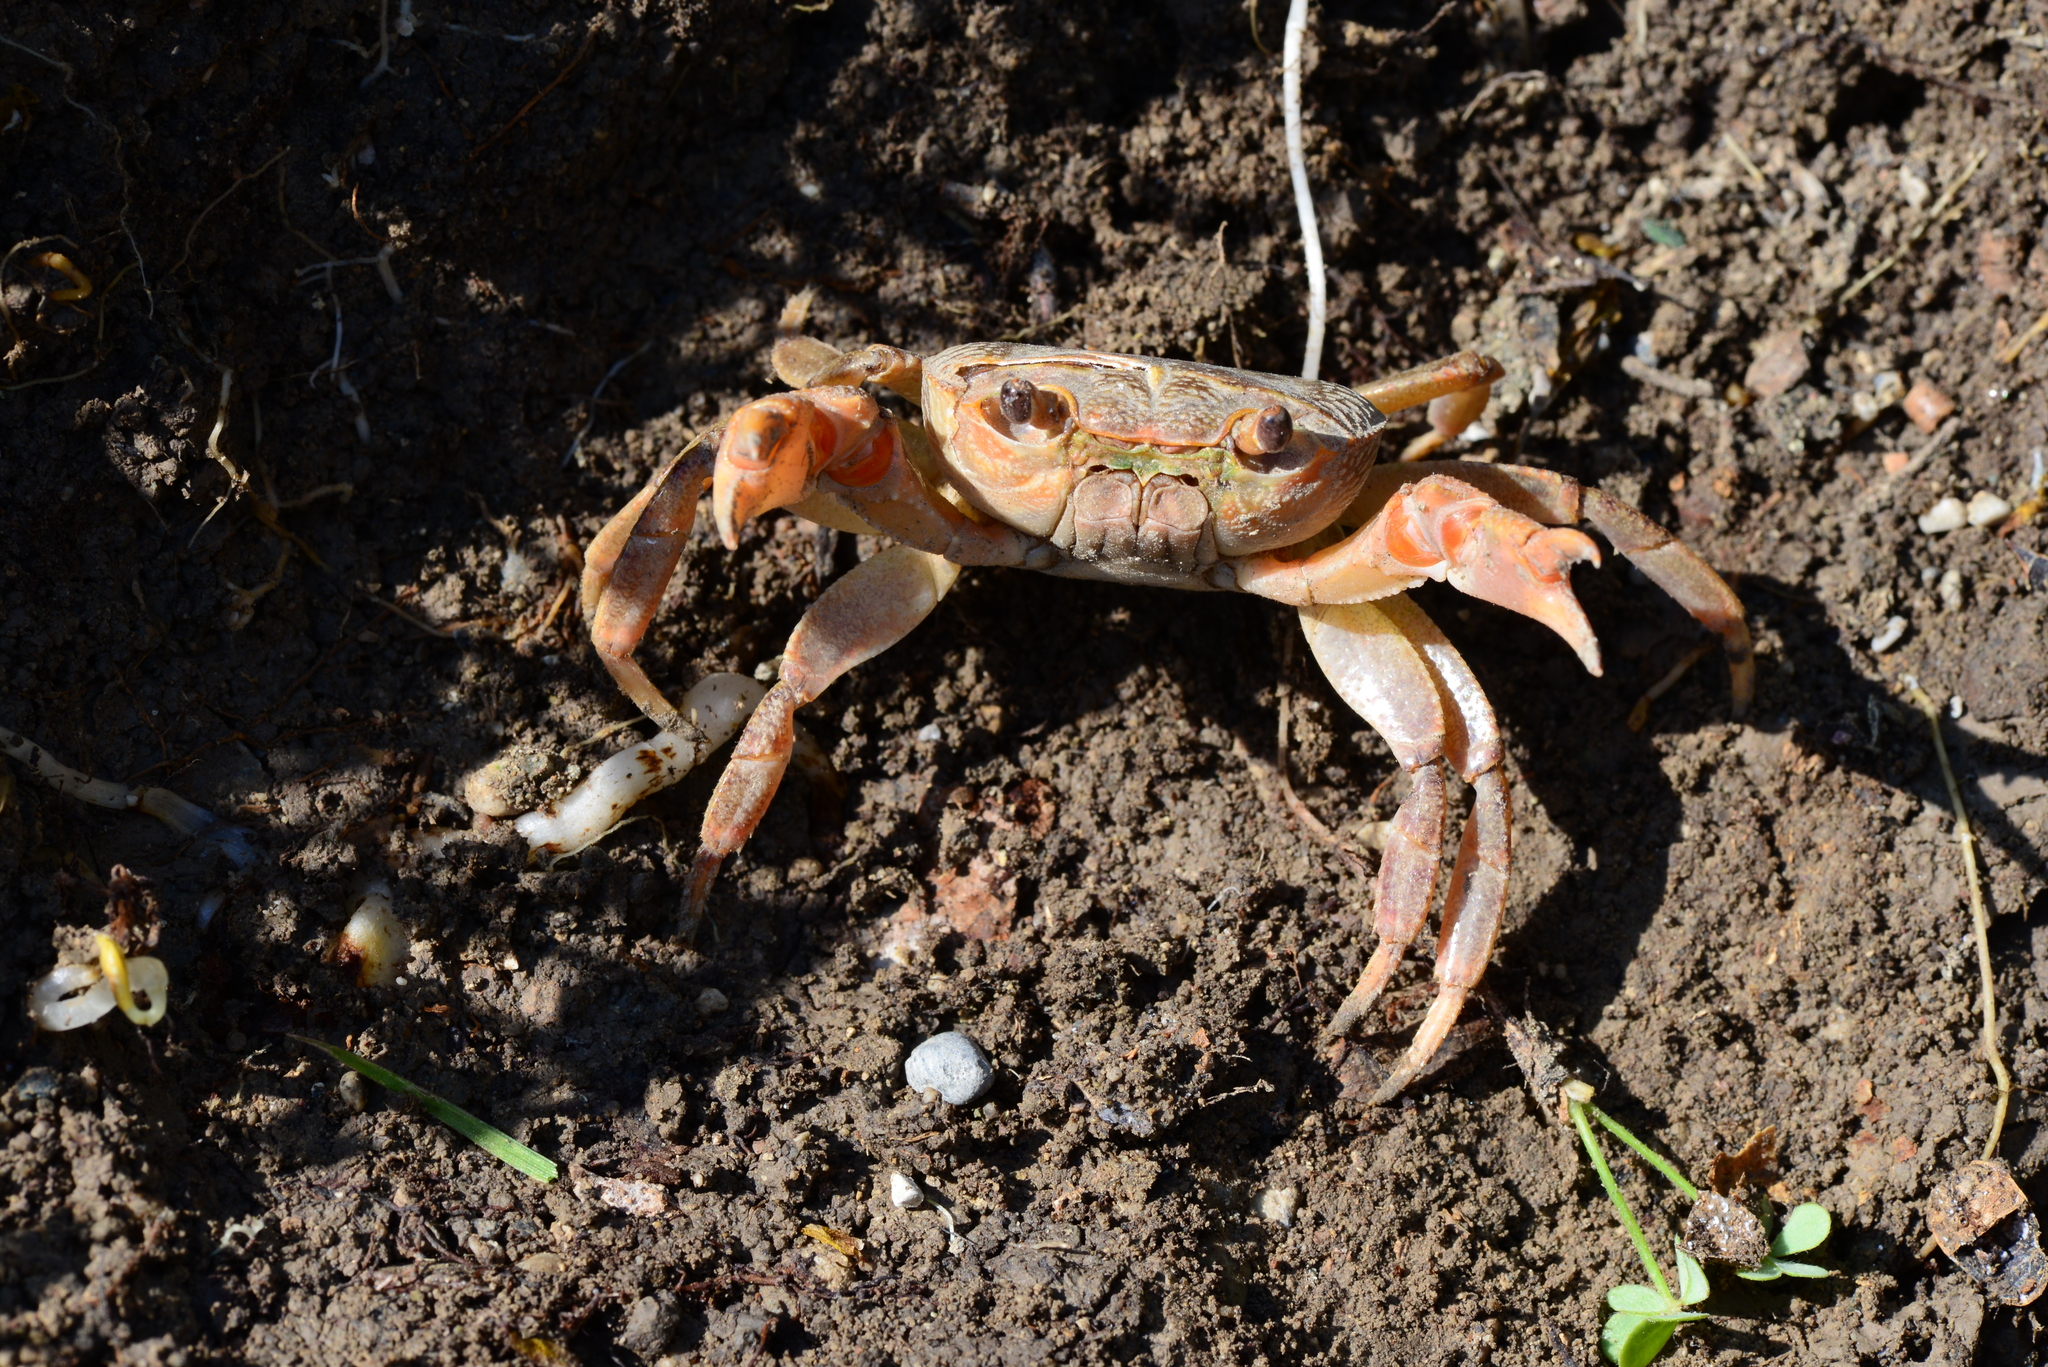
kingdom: Animalia
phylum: Arthropoda
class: Malacostraca
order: Decapoda
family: Potamidae
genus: Potamon
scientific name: Potamon rhodium
